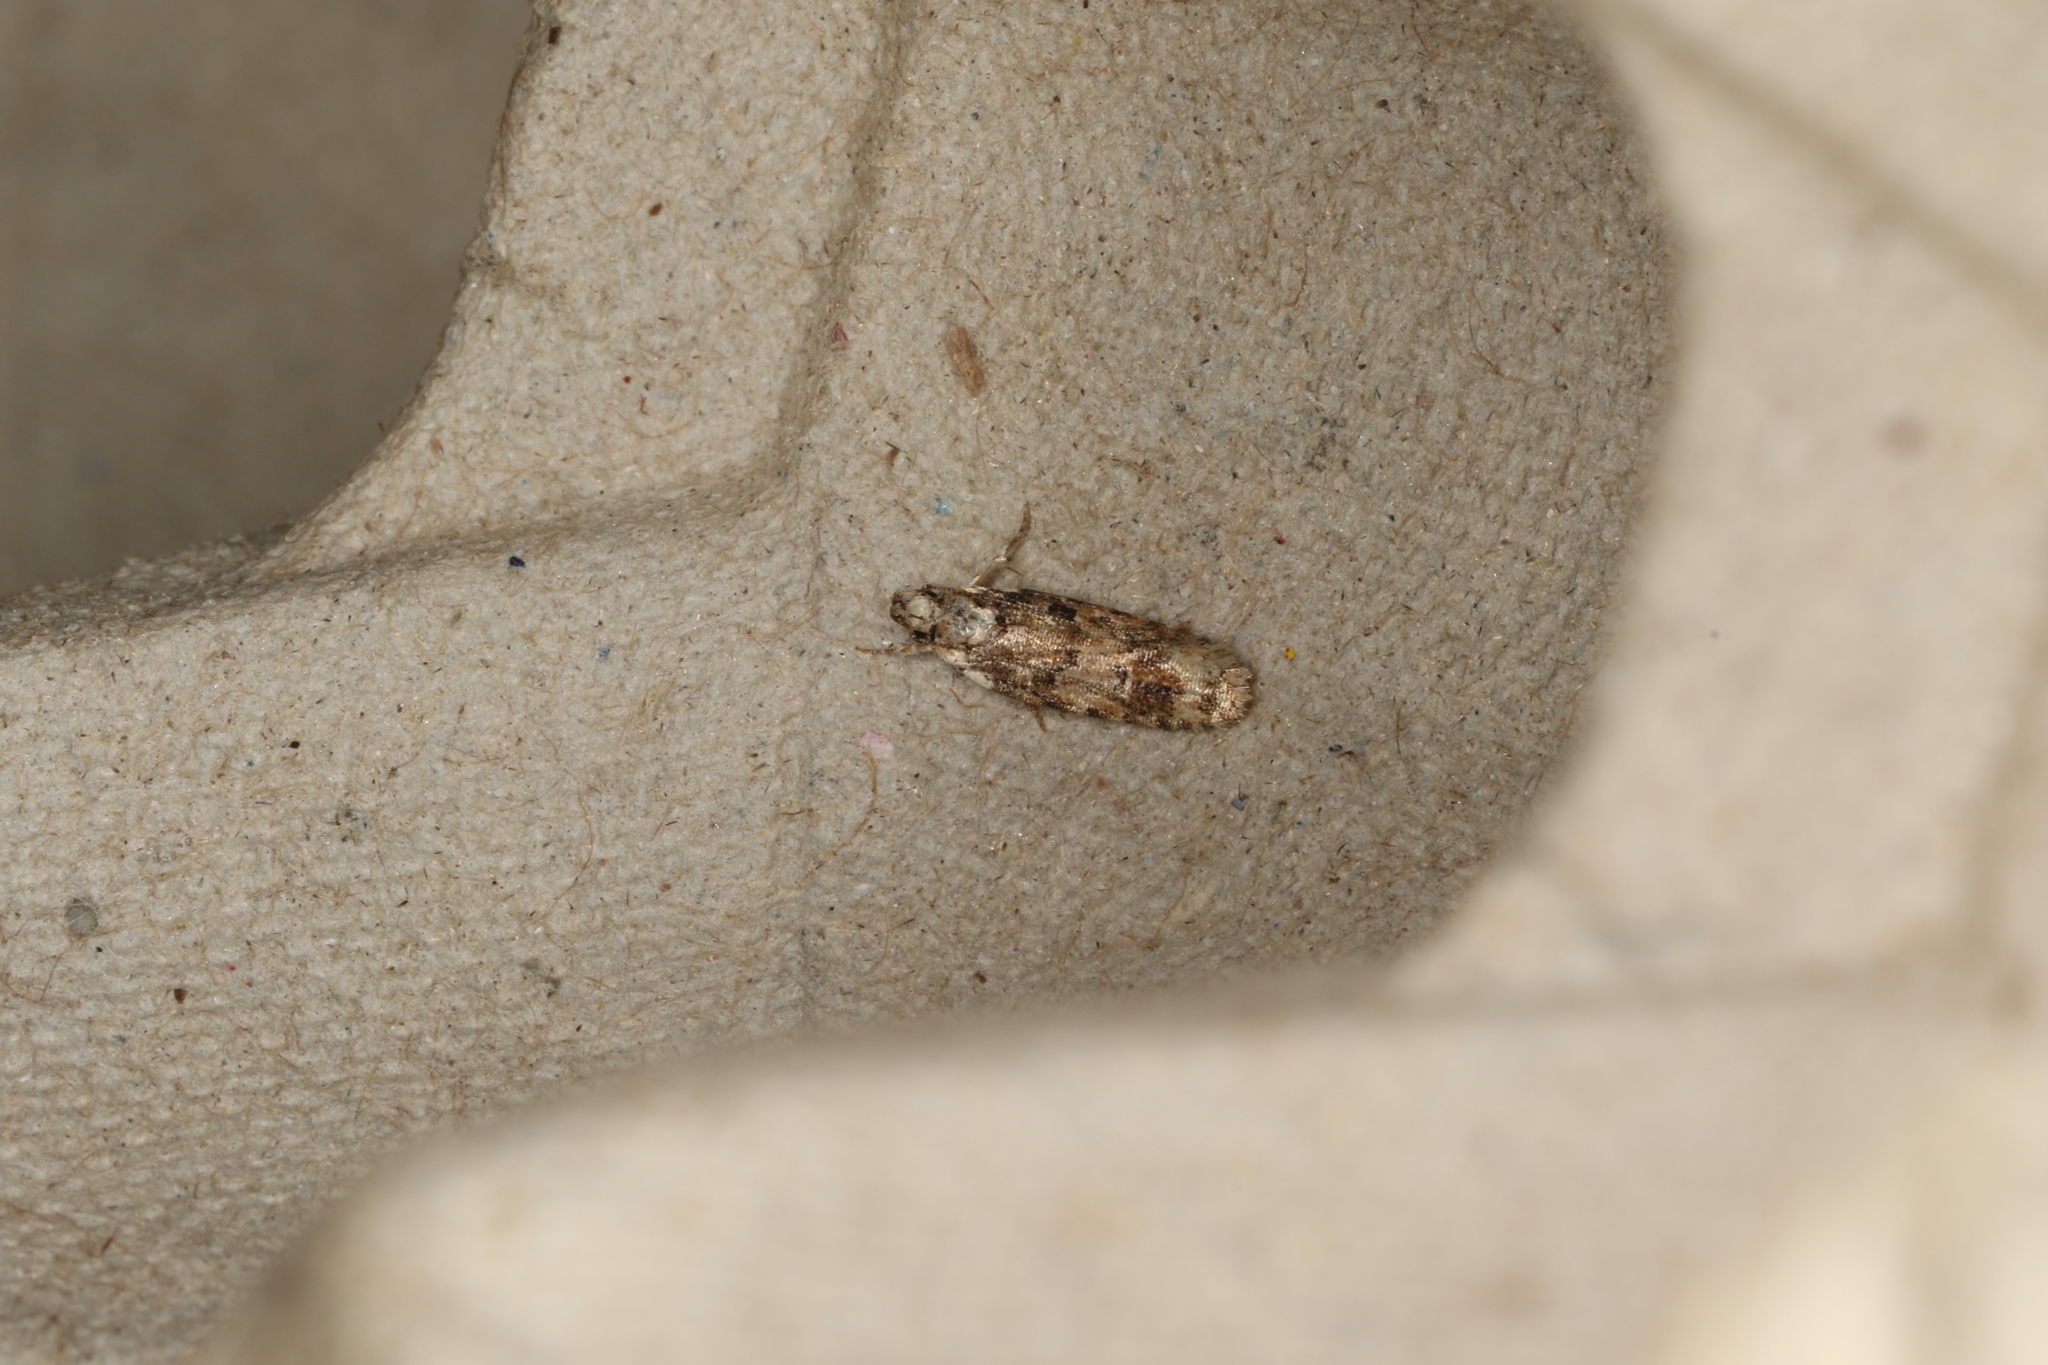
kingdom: Animalia
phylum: Arthropoda
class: Insecta
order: Lepidoptera
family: Gelechiidae
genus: Ardozyga
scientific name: Ardozyga sodalisella
